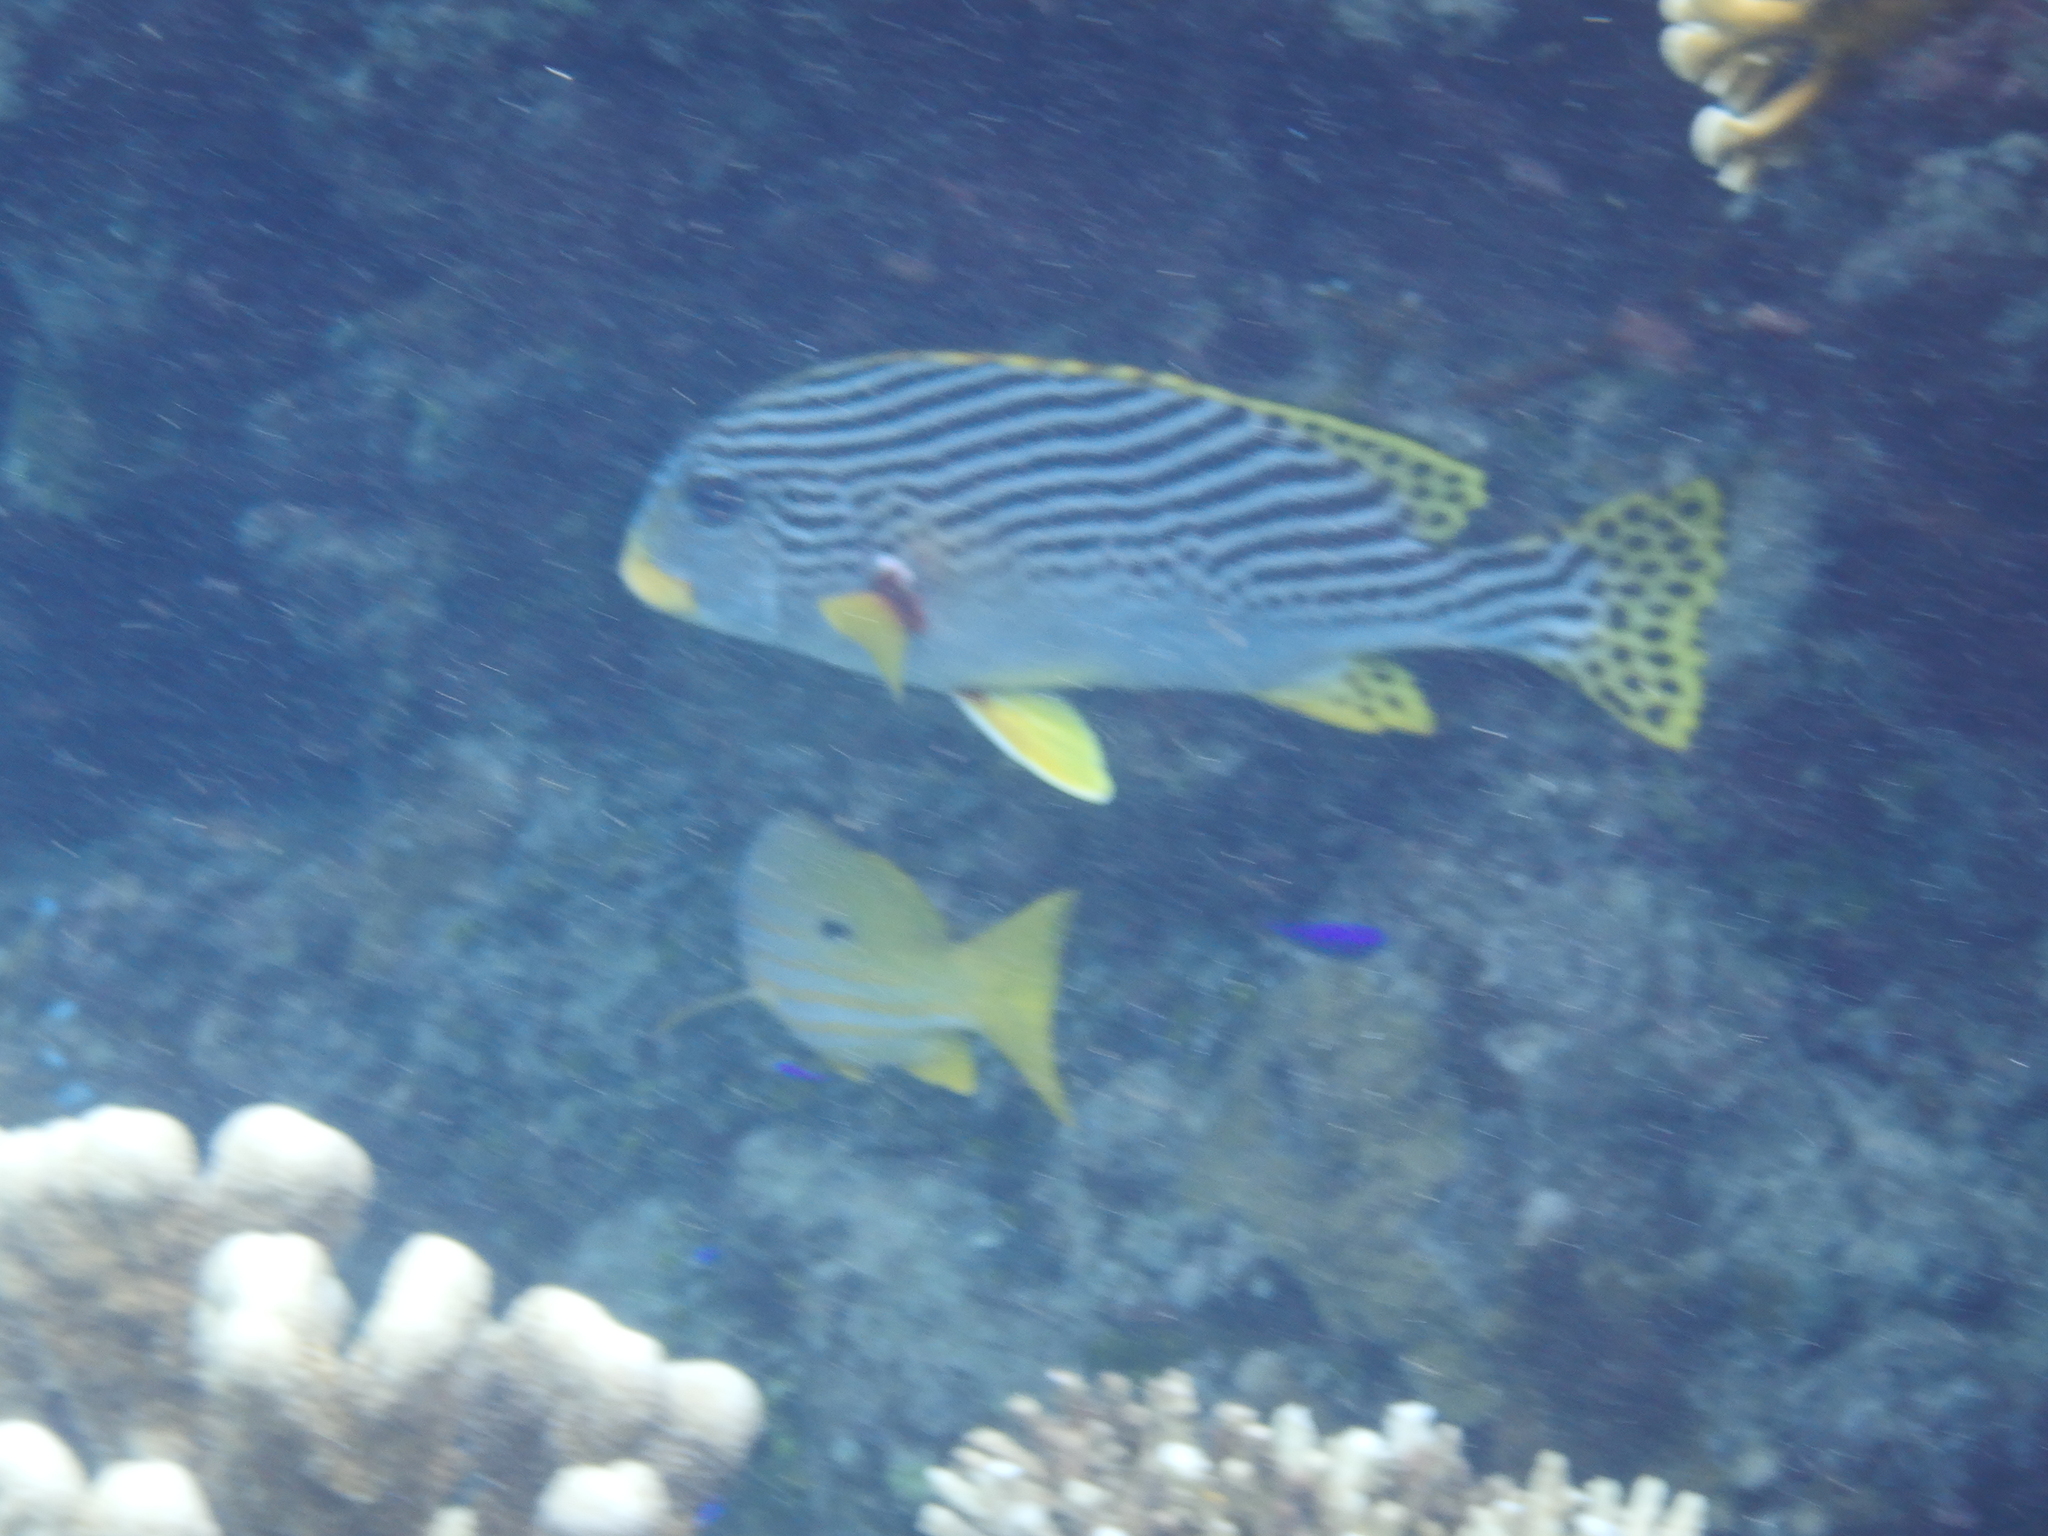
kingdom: Animalia
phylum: Chordata
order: Perciformes
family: Haemulidae
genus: Plectorhinchus
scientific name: Plectorhinchus lineatus
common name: Goldman's sweetlips
